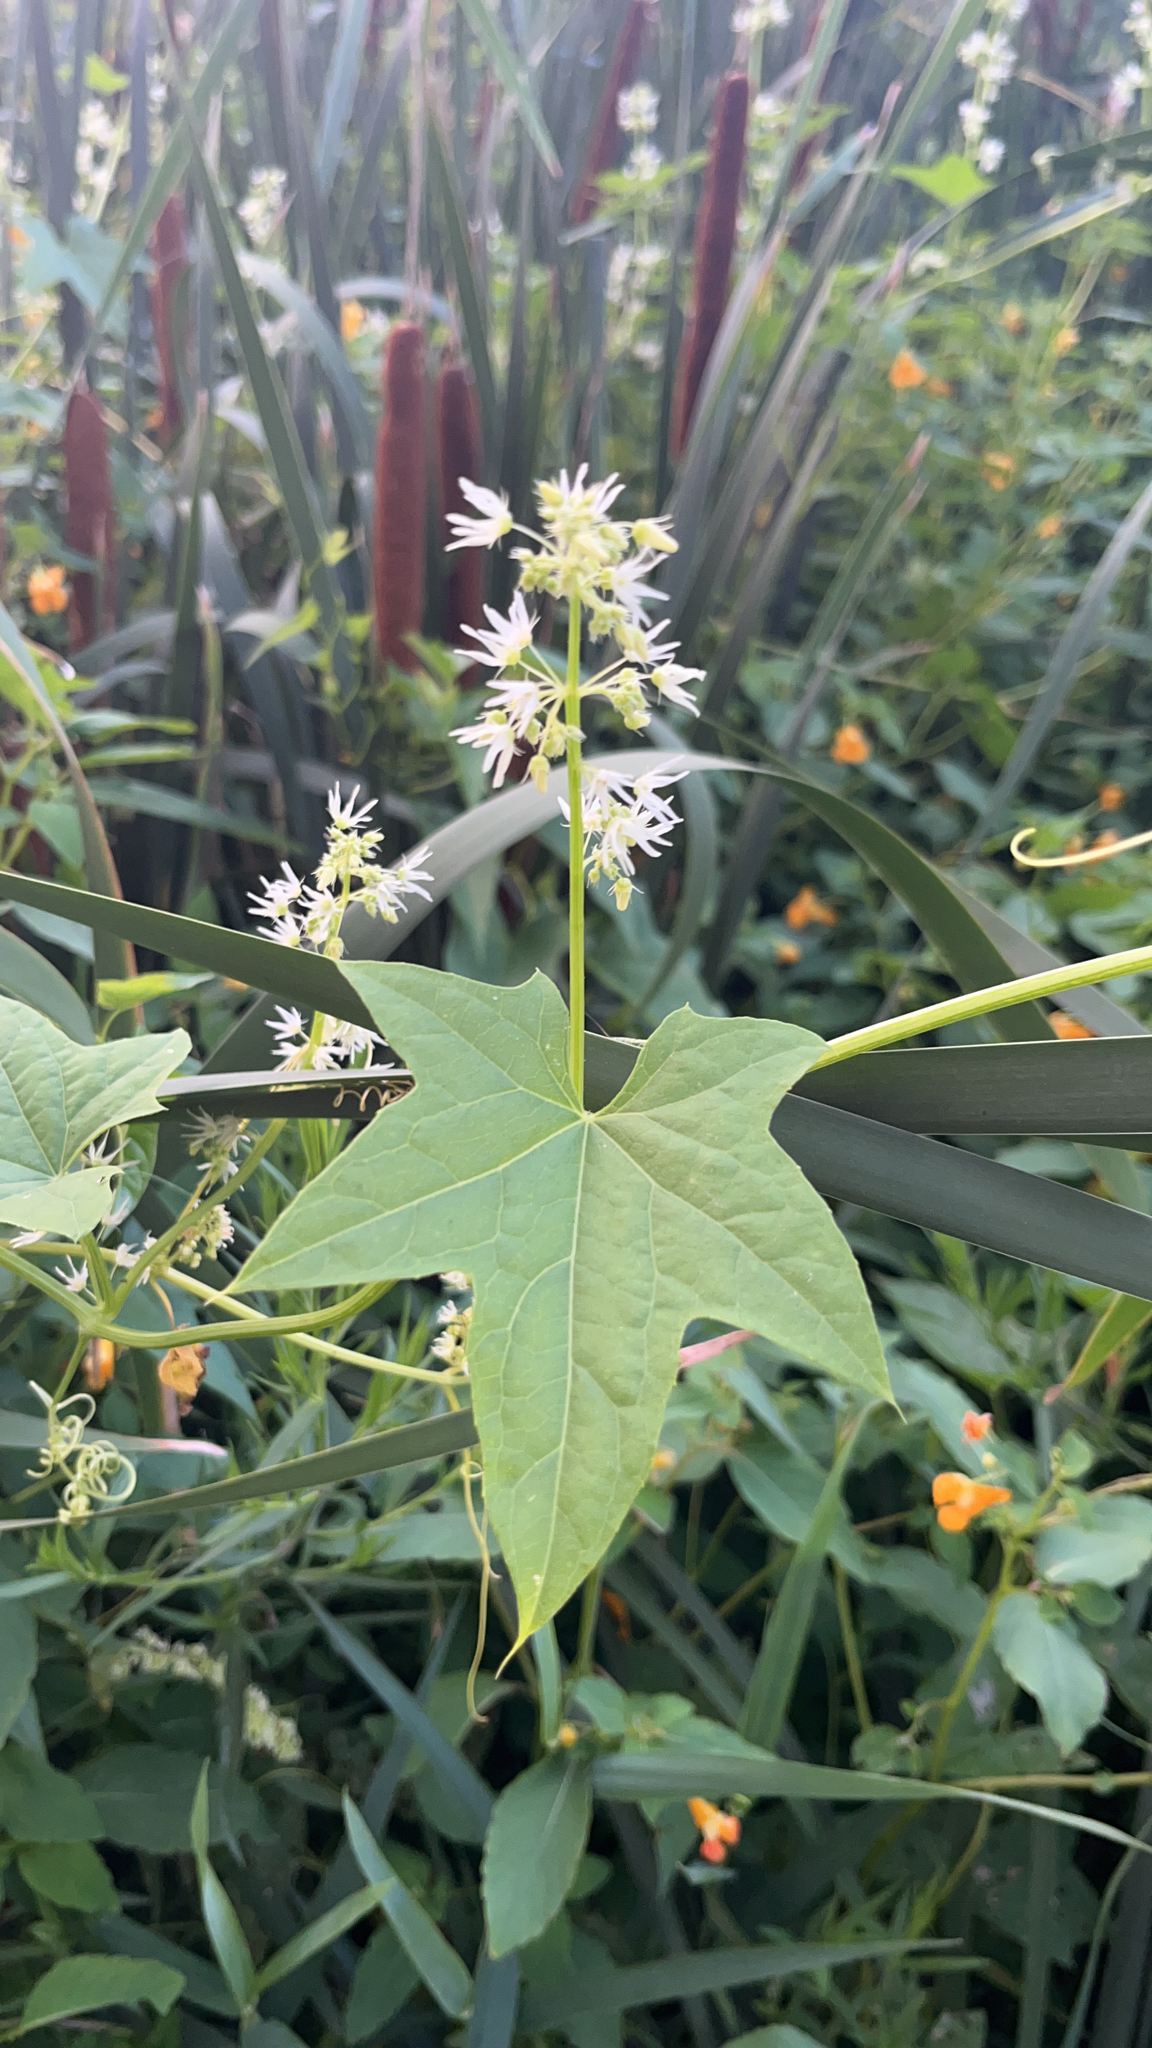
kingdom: Plantae
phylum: Tracheophyta
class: Magnoliopsida
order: Cucurbitales
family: Cucurbitaceae
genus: Echinocystis
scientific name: Echinocystis lobata
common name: Wild cucumber
